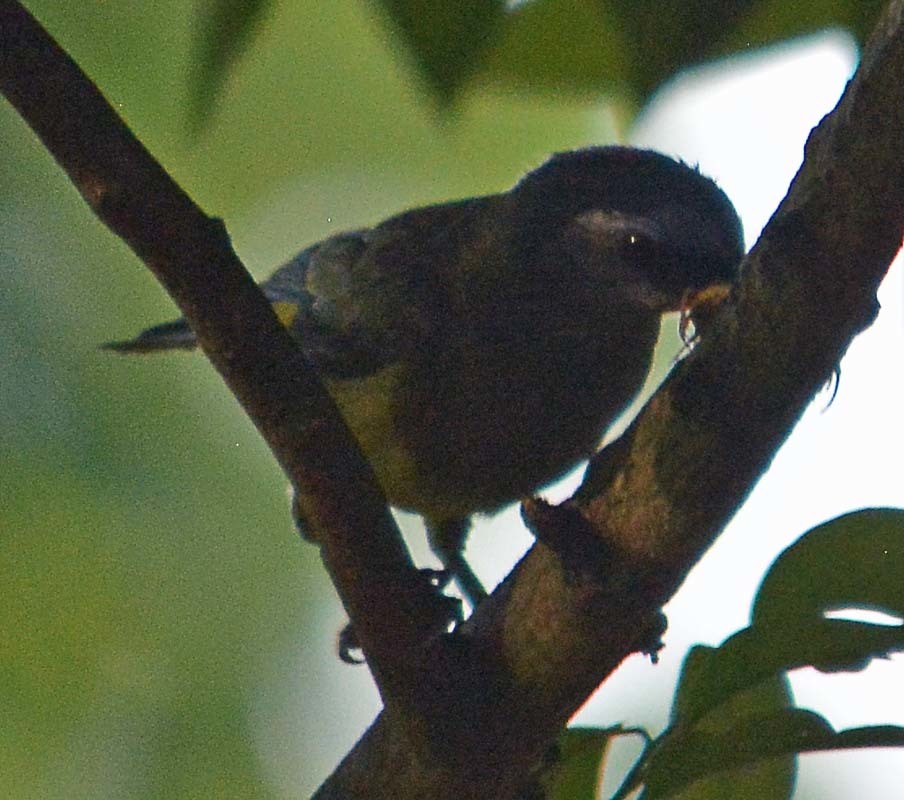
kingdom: Animalia
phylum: Chordata
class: Aves
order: Passeriformes
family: Thraupidae
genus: Thraupis
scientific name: Thraupis abbas
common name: Yellow-winged tanager
